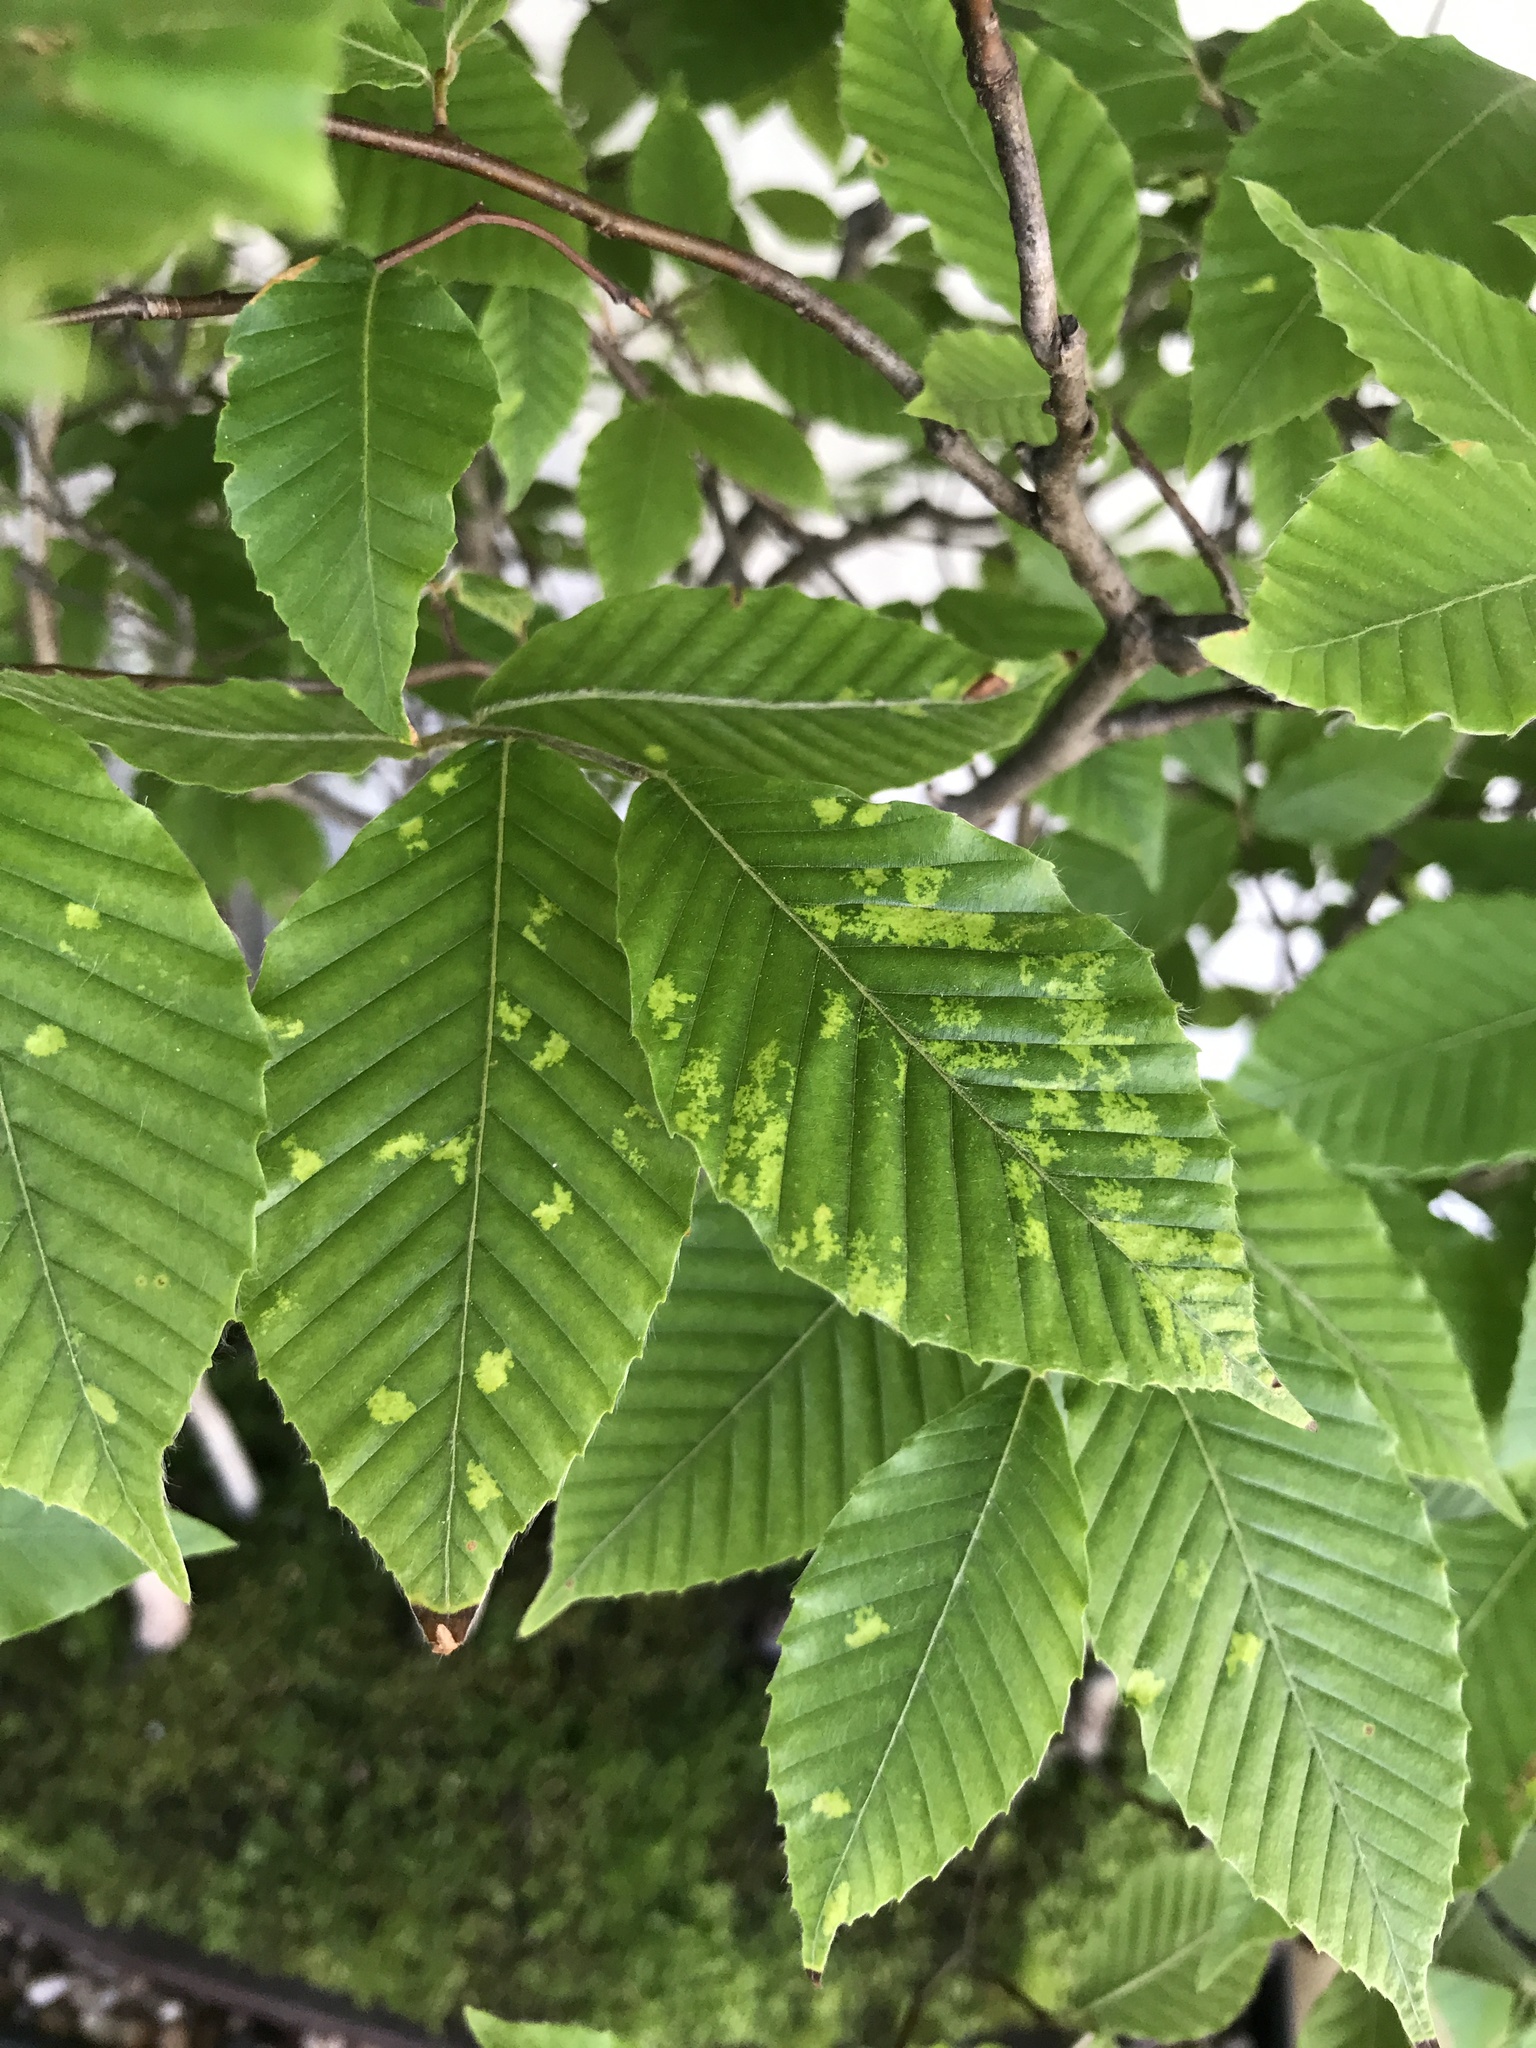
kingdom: Animalia
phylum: Arthropoda
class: Arachnida
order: Trombidiformes
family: Eriophyidae
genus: Acalitus
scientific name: Acalitus
